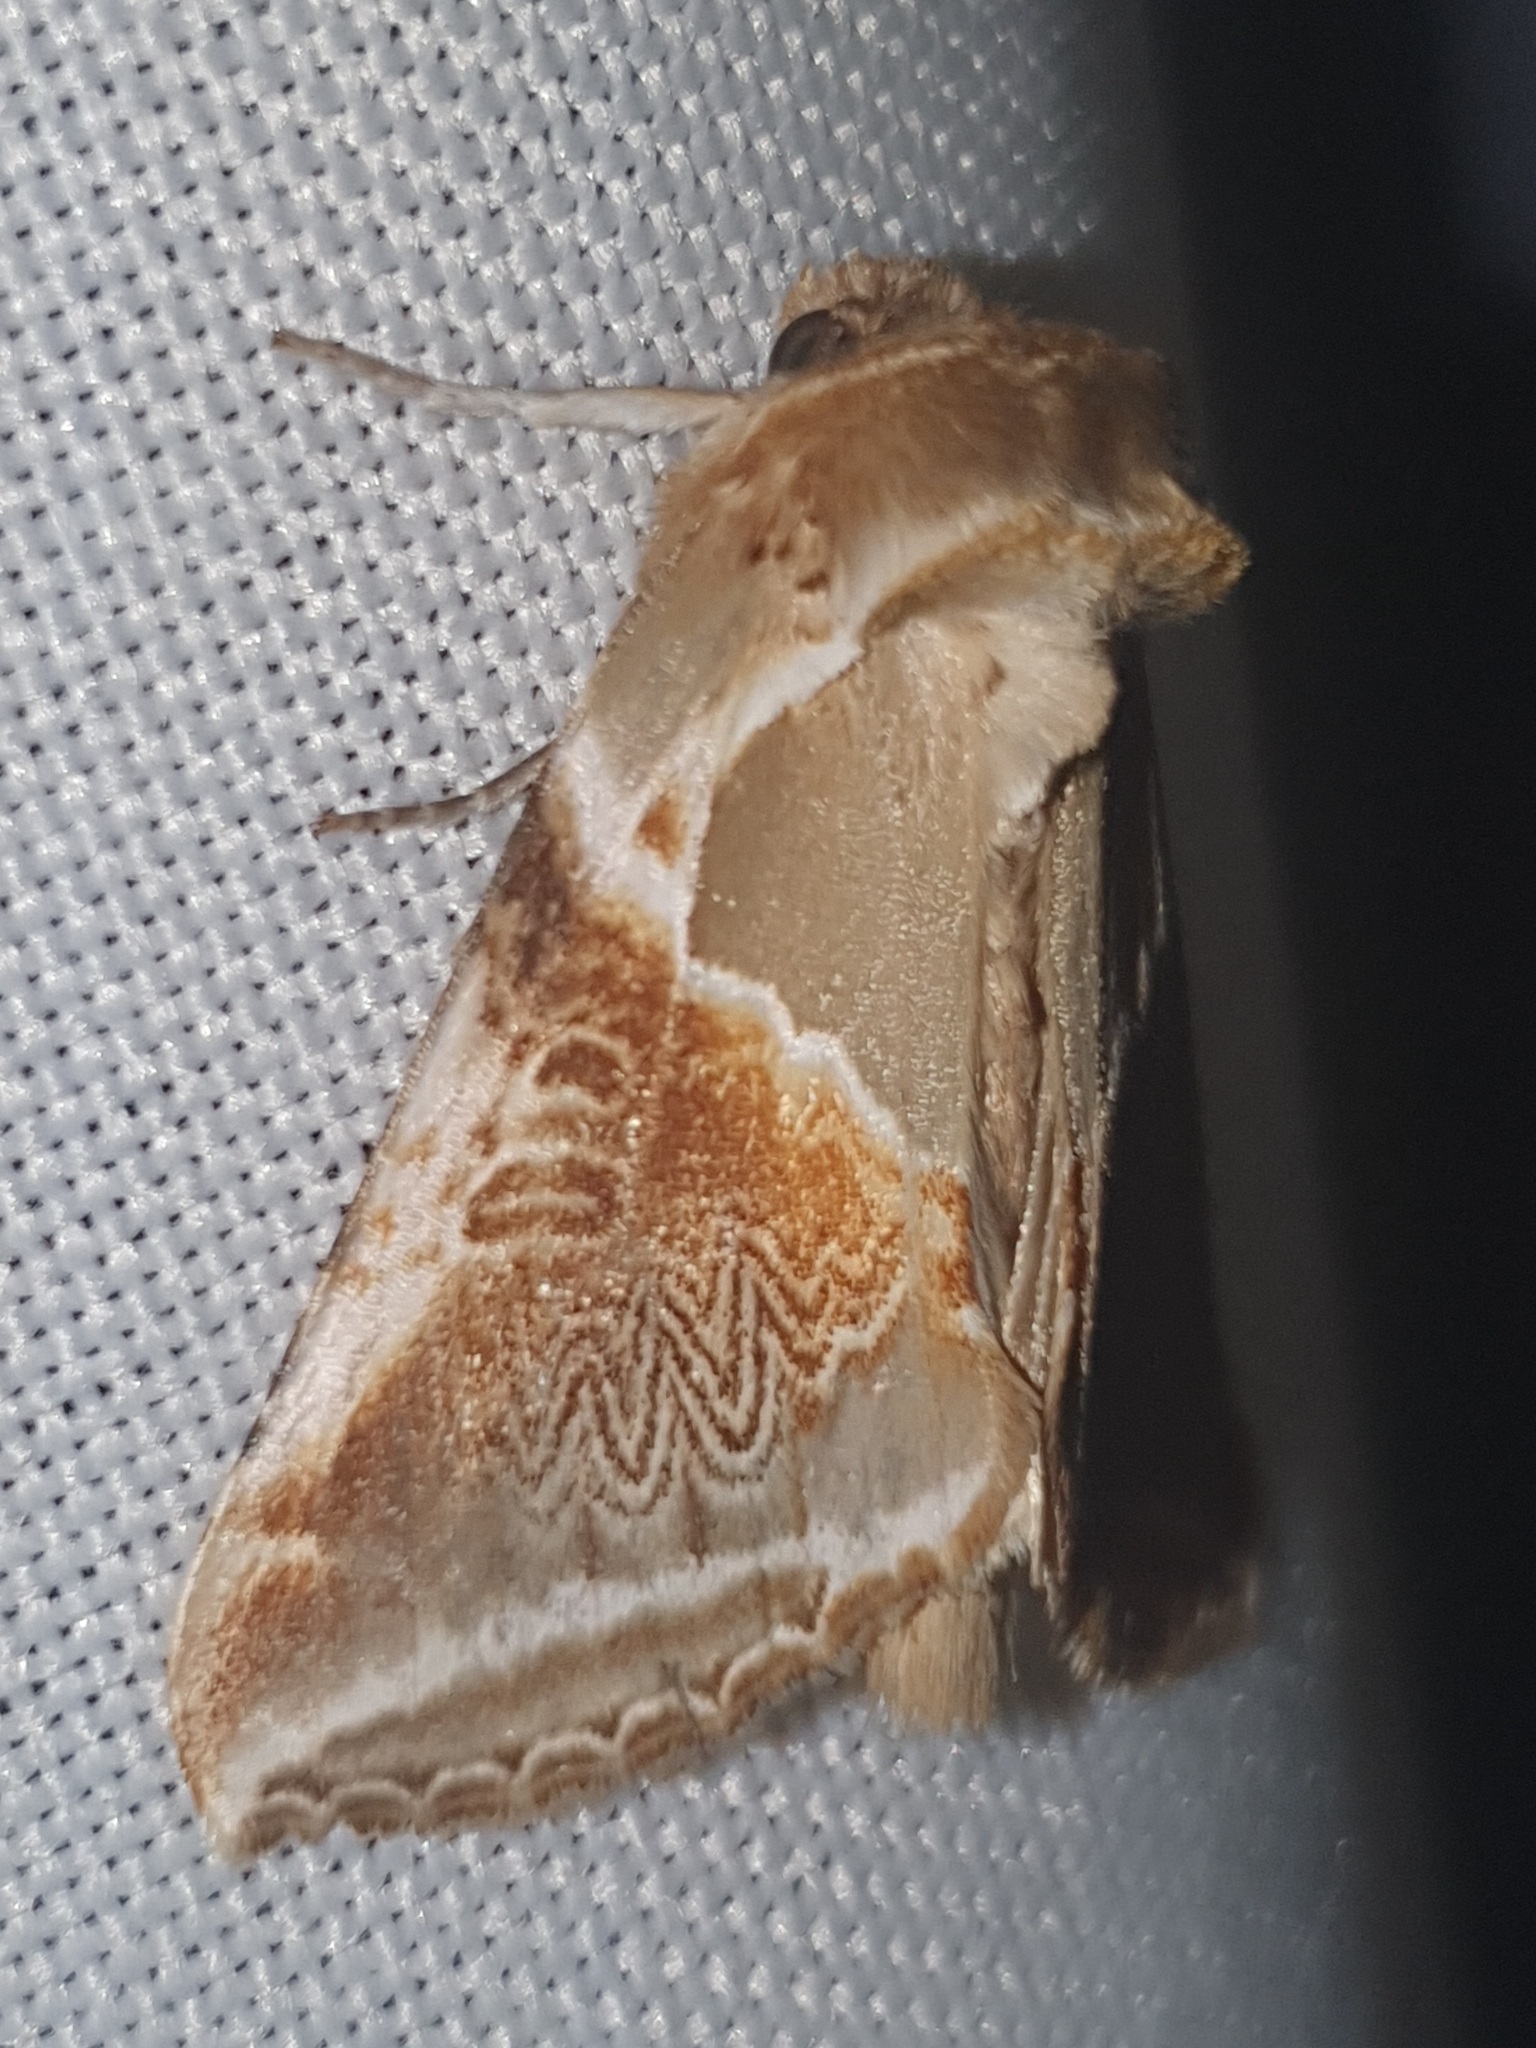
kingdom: Animalia
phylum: Arthropoda
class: Insecta
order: Lepidoptera
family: Drepanidae
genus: Habrosyne
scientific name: Habrosyne pyritoides
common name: Buff arches
